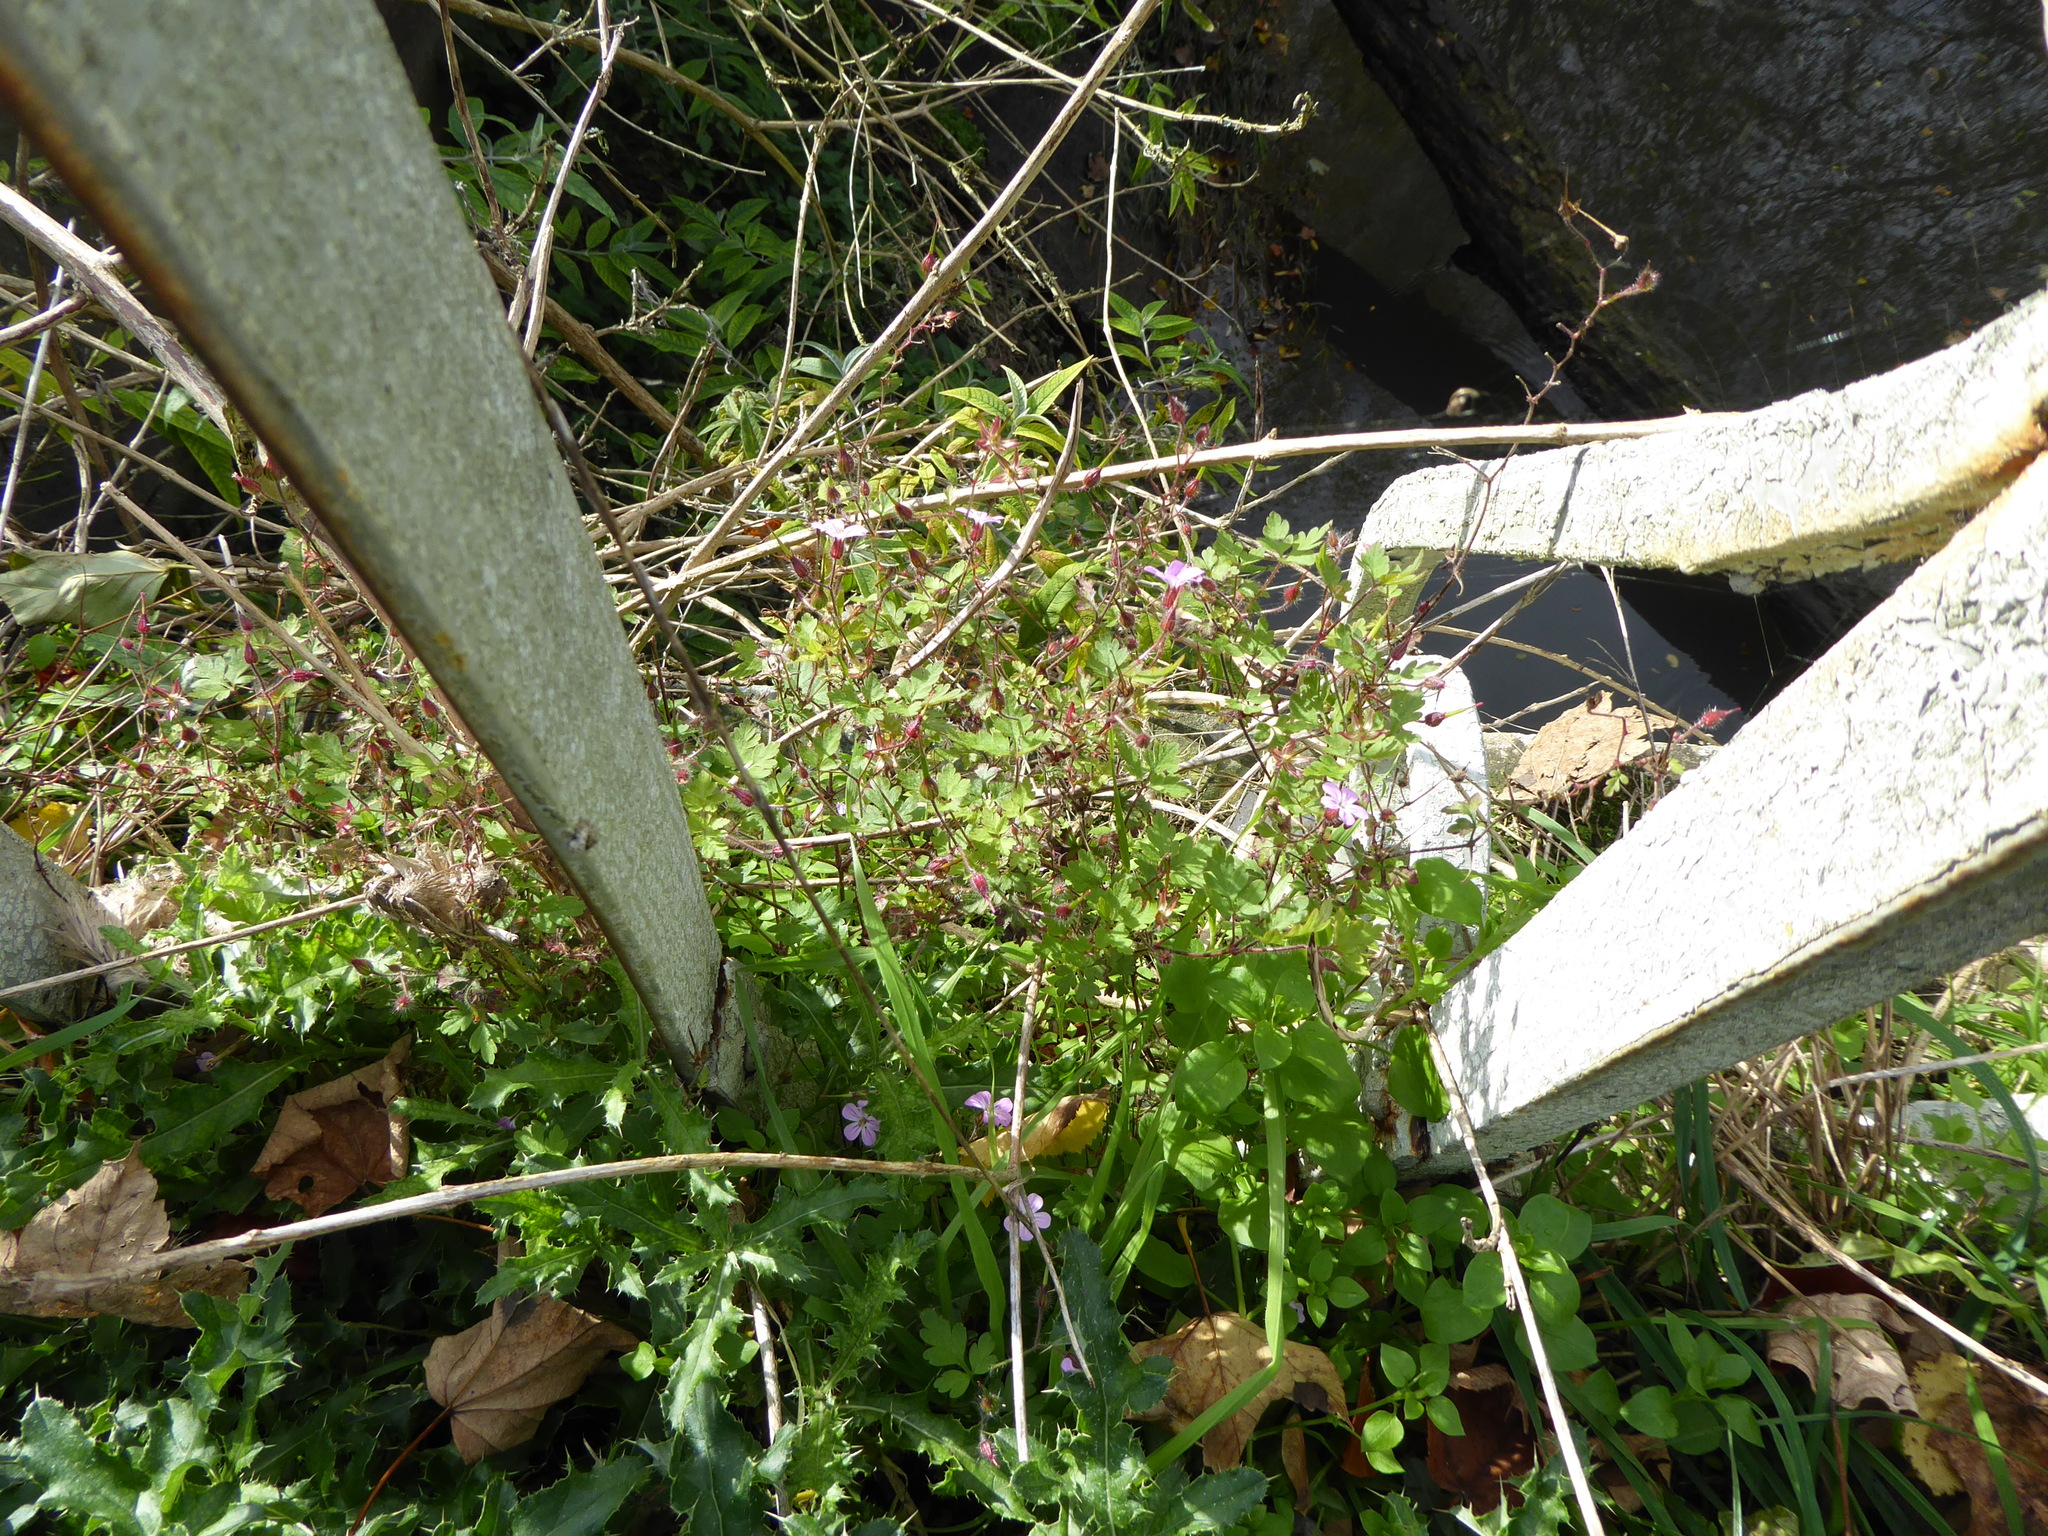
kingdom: Plantae
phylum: Tracheophyta
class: Magnoliopsida
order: Geraniales
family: Geraniaceae
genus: Geranium
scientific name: Geranium robertianum
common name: Herb-robert
